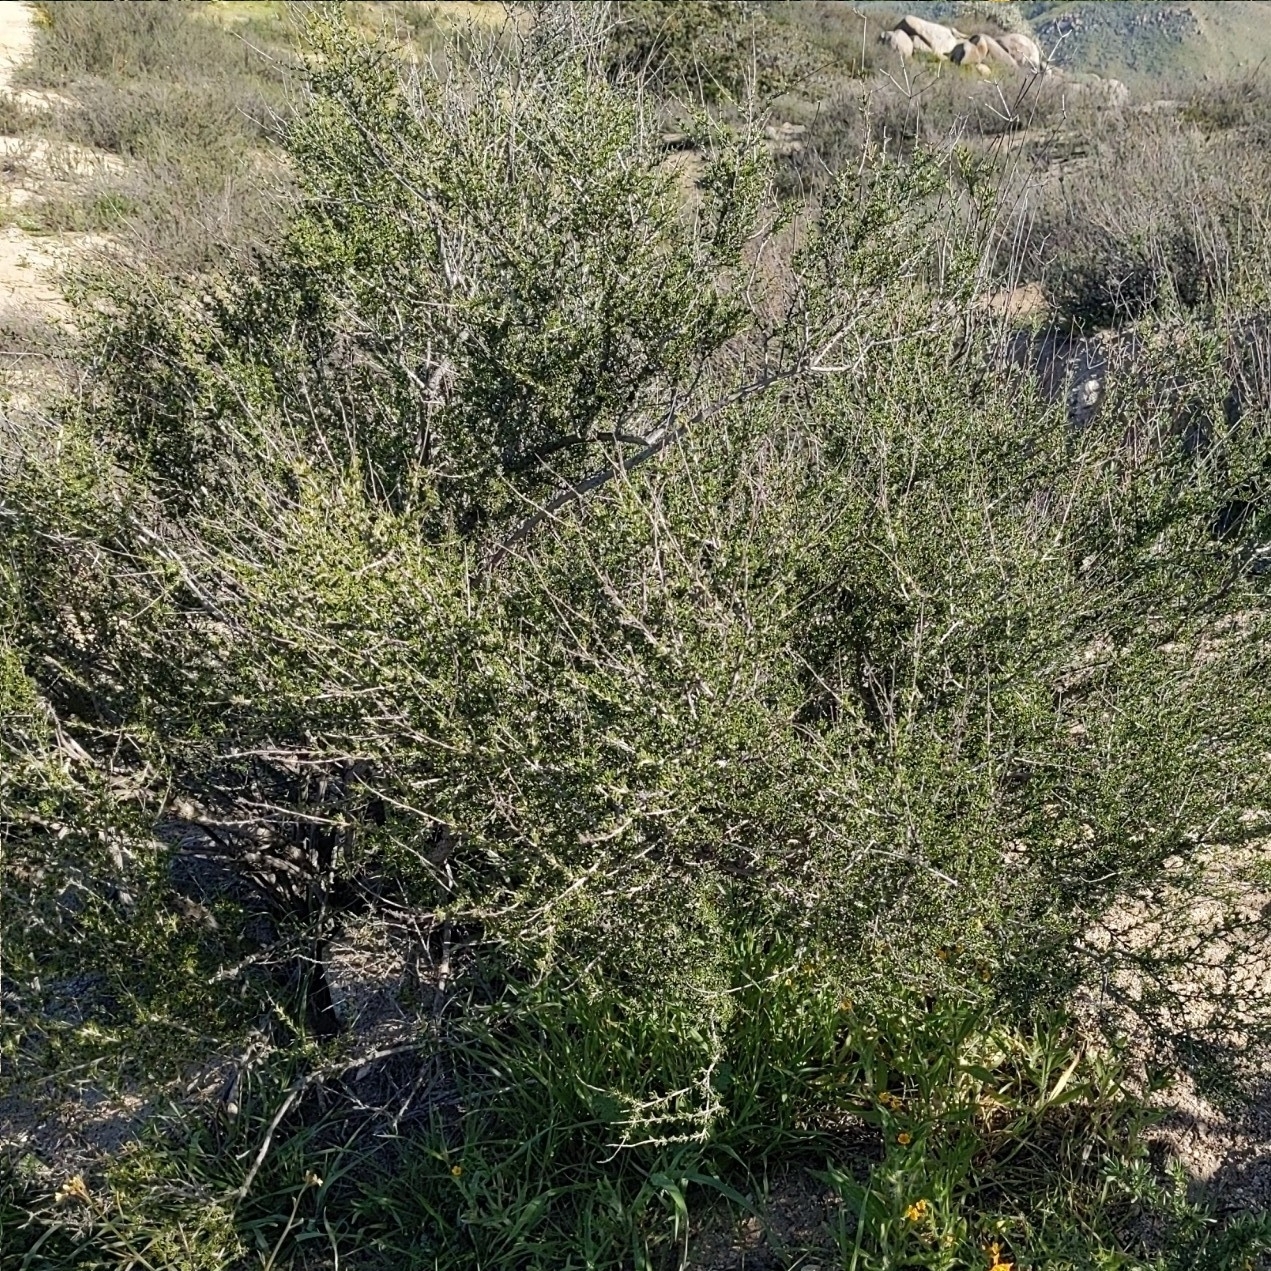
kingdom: Plantae
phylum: Tracheophyta
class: Magnoliopsida
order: Rosales
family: Rosaceae
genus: Adenostoma
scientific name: Adenostoma fasciculatum
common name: Chamise
